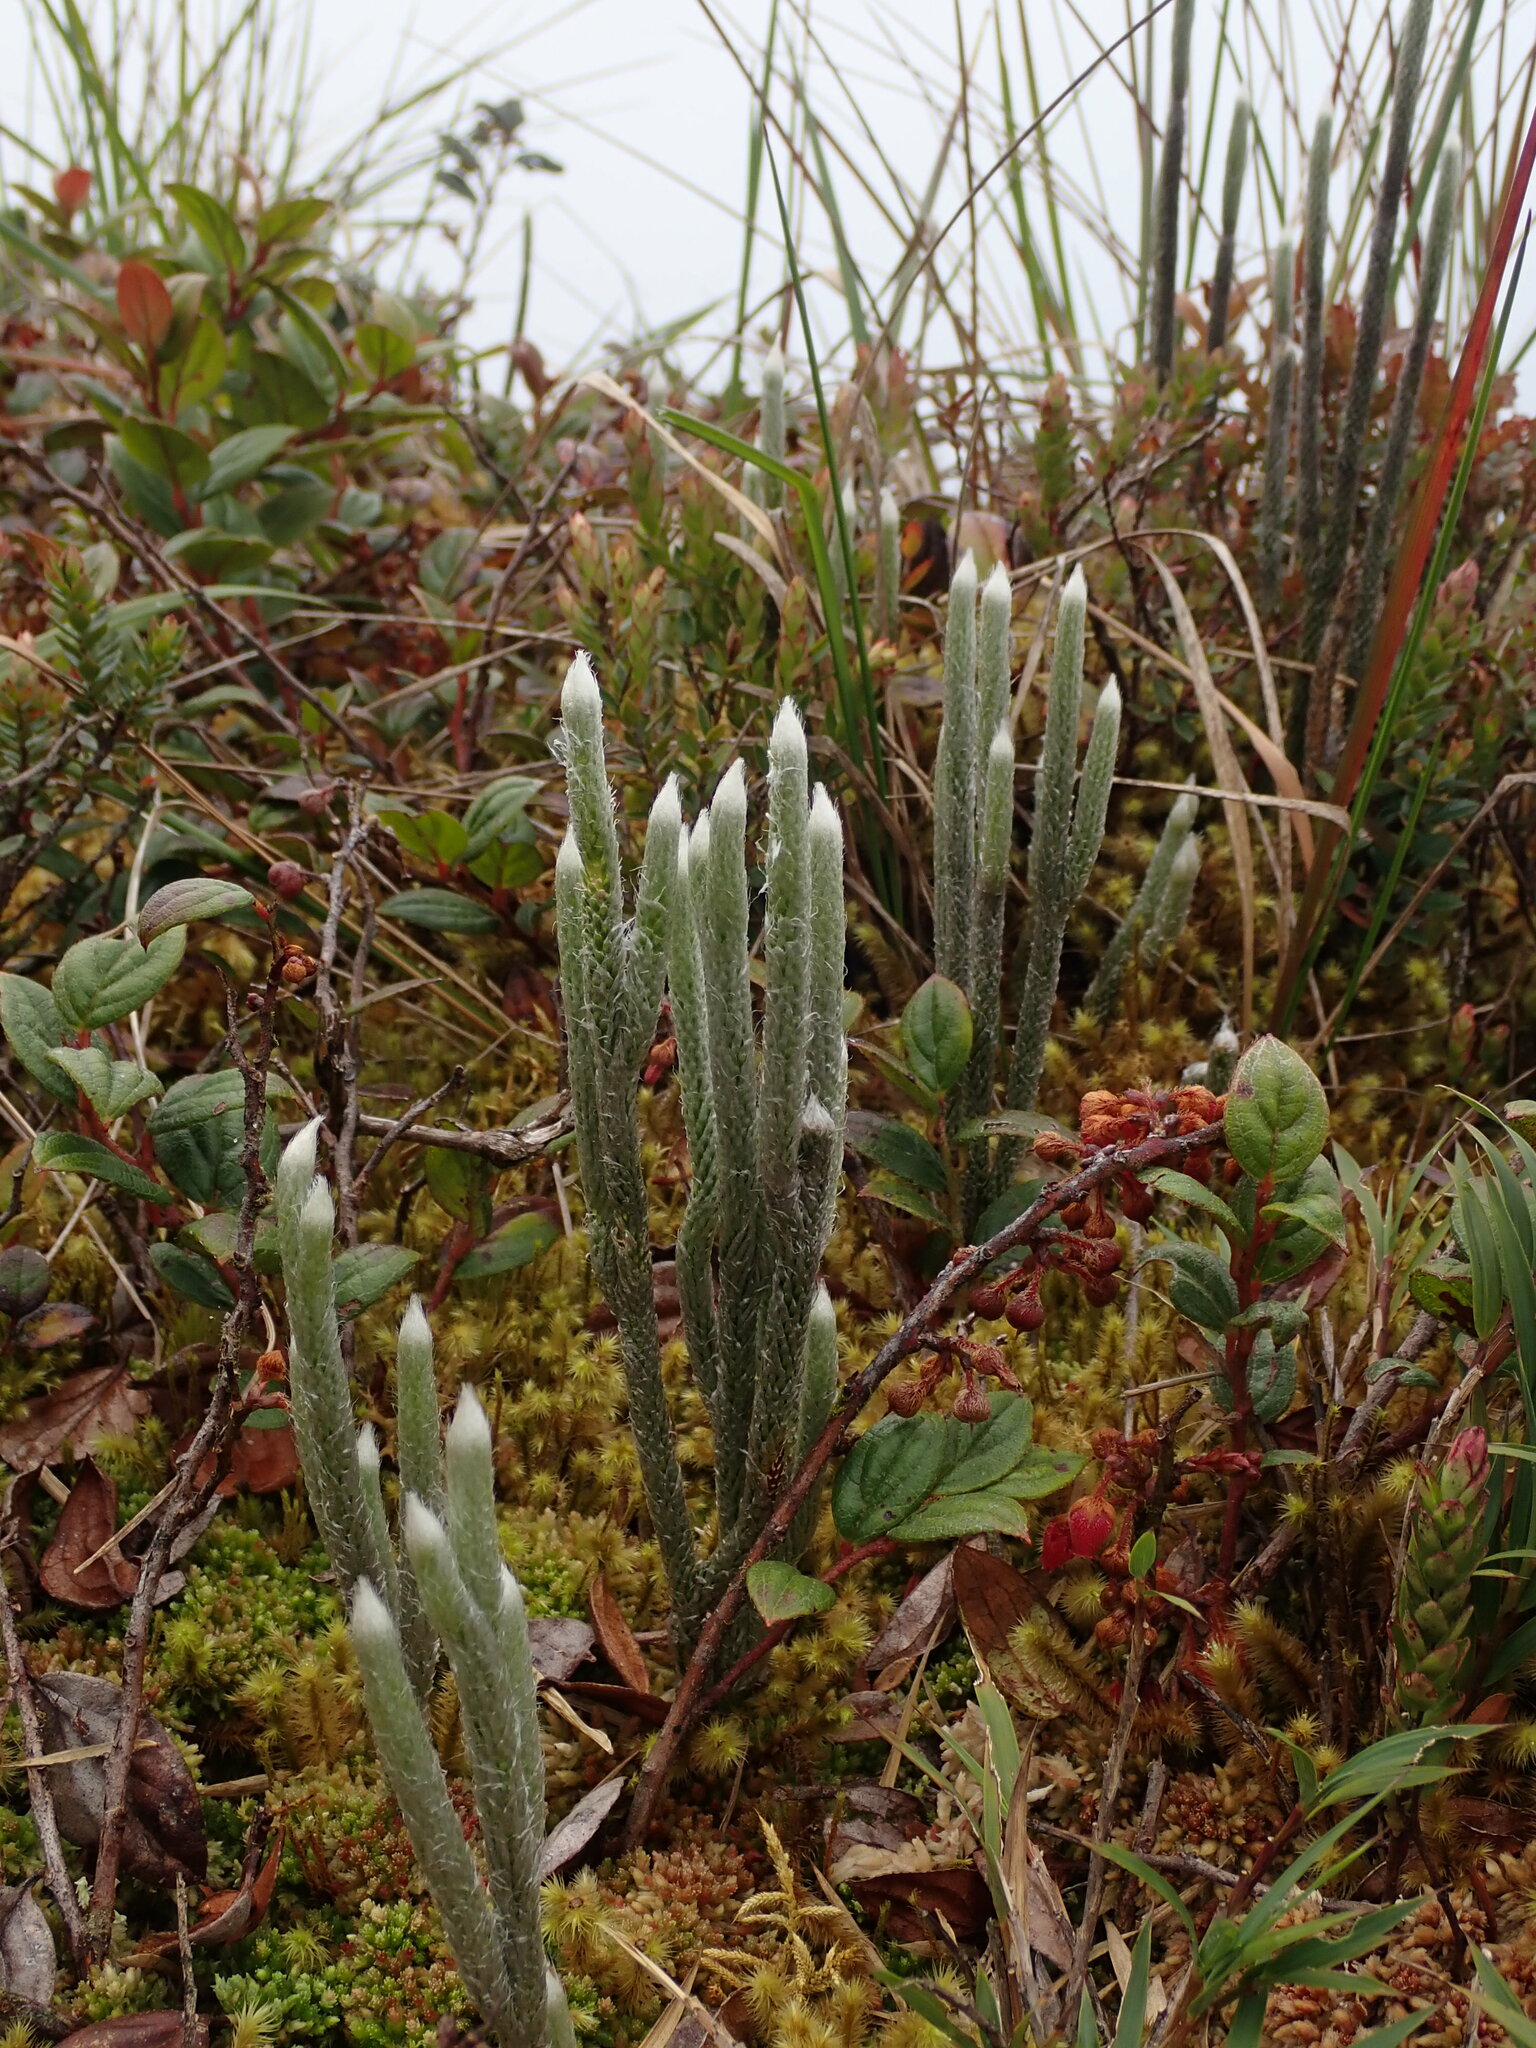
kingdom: Plantae
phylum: Tracheophyta
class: Lycopodiopsida
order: Lycopodiales
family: Lycopodiaceae
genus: Lycopodium
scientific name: Lycopodium vestitum
